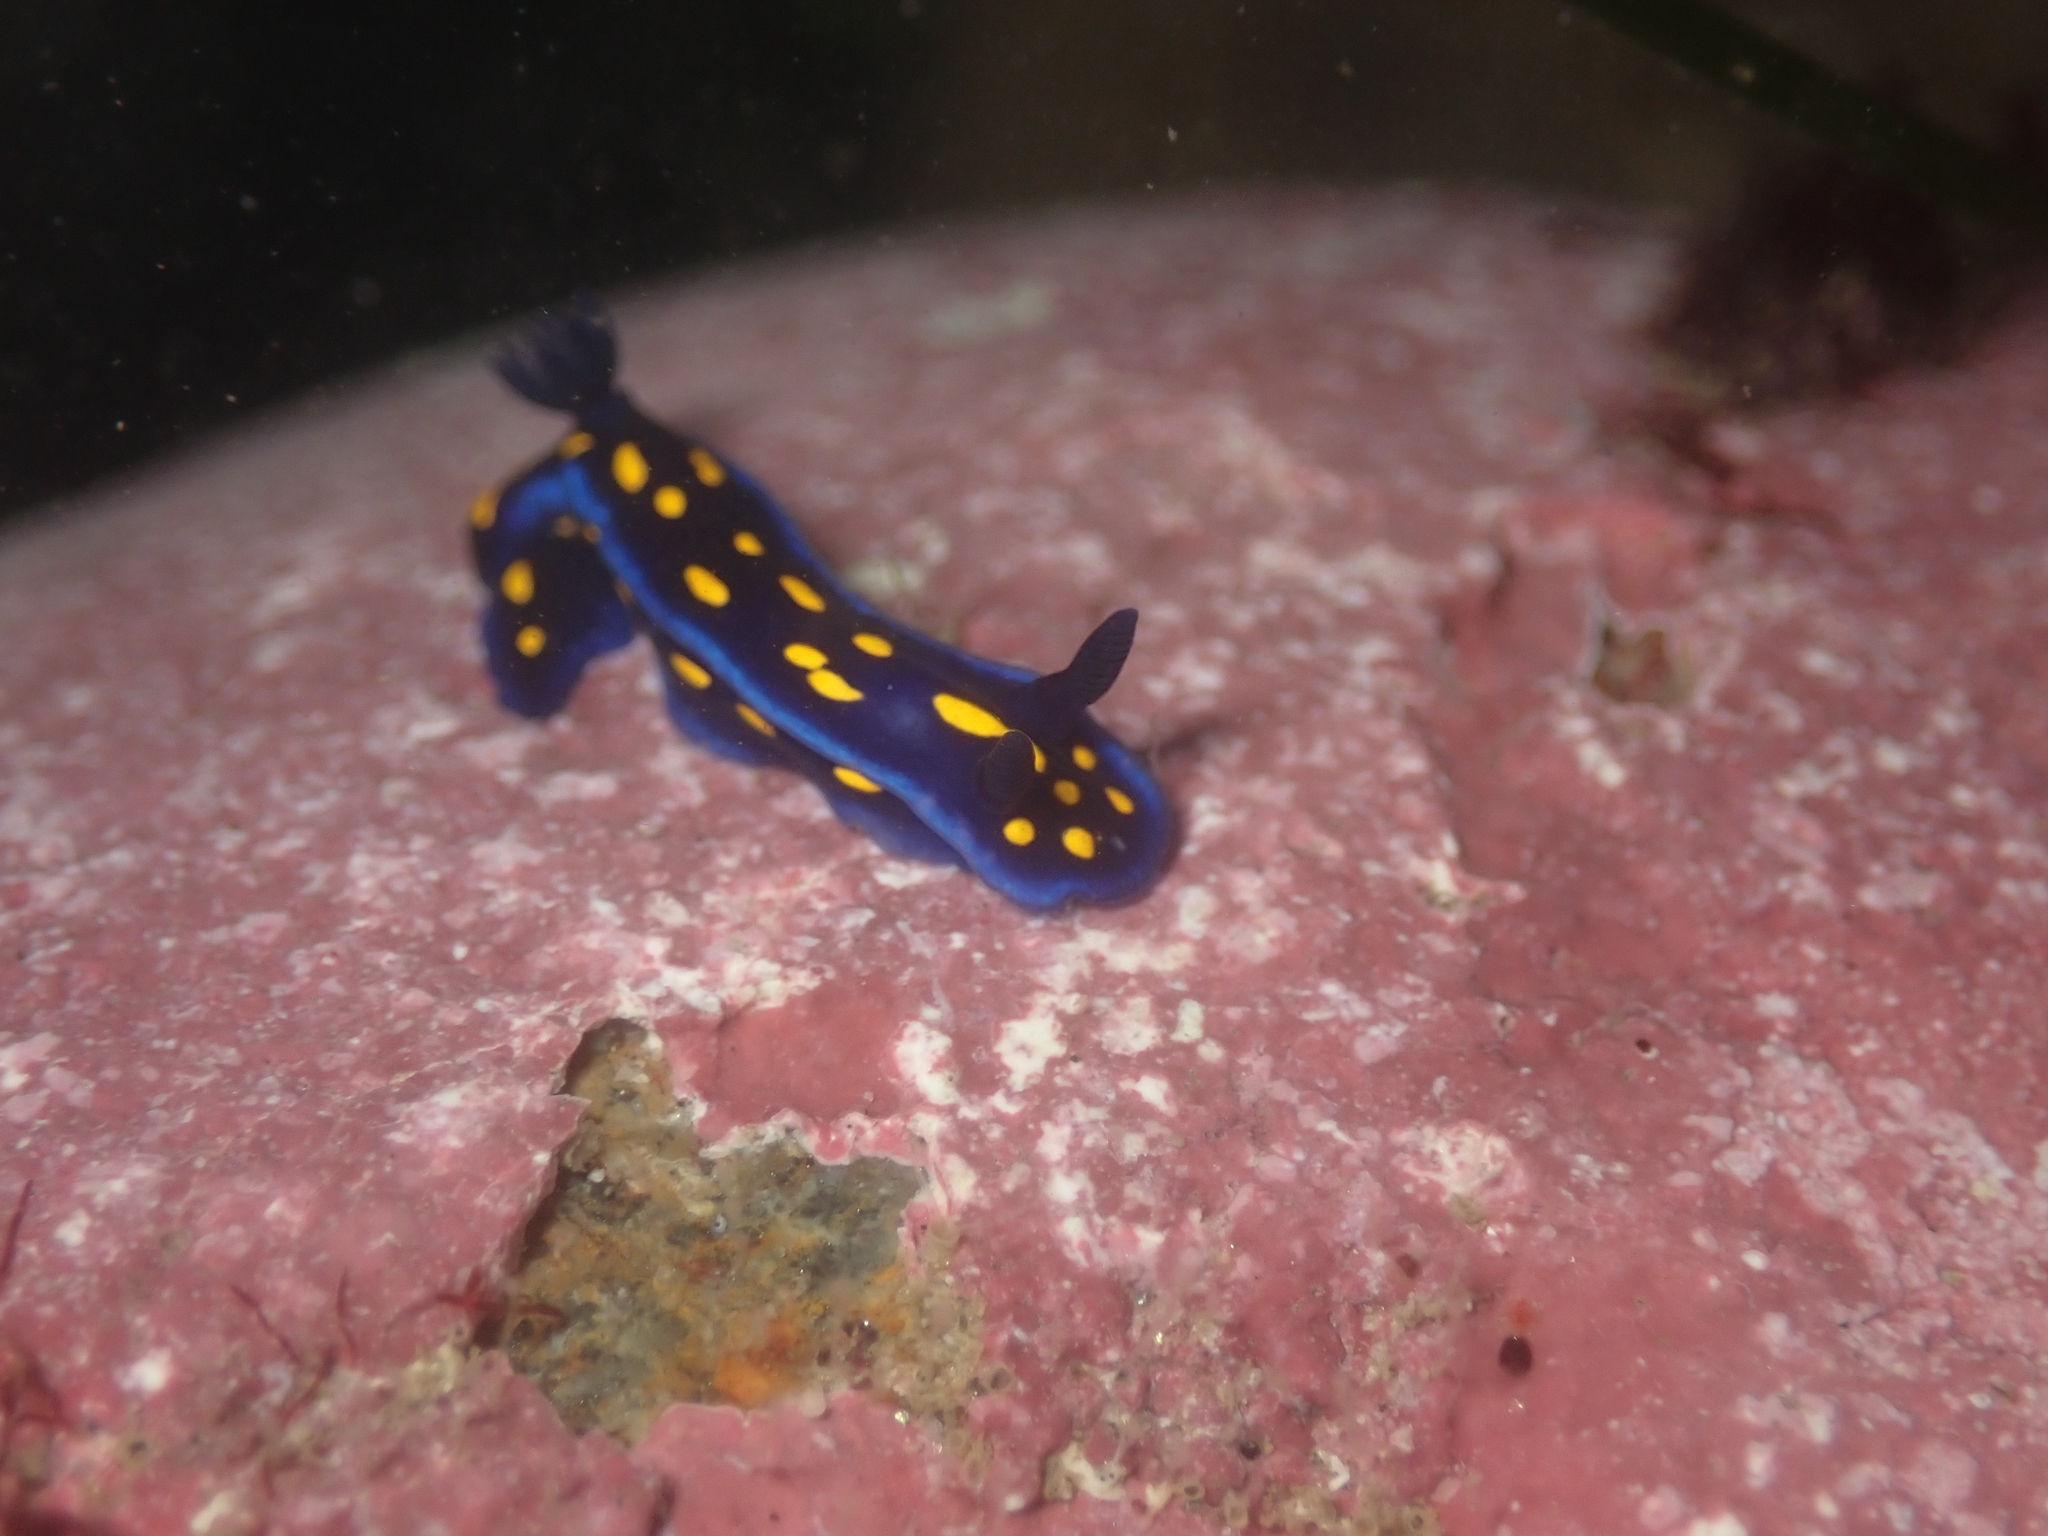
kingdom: Animalia
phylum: Mollusca
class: Gastropoda
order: Nudibranchia
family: Chromodorididae
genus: Felimare
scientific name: Felimare californiensis
